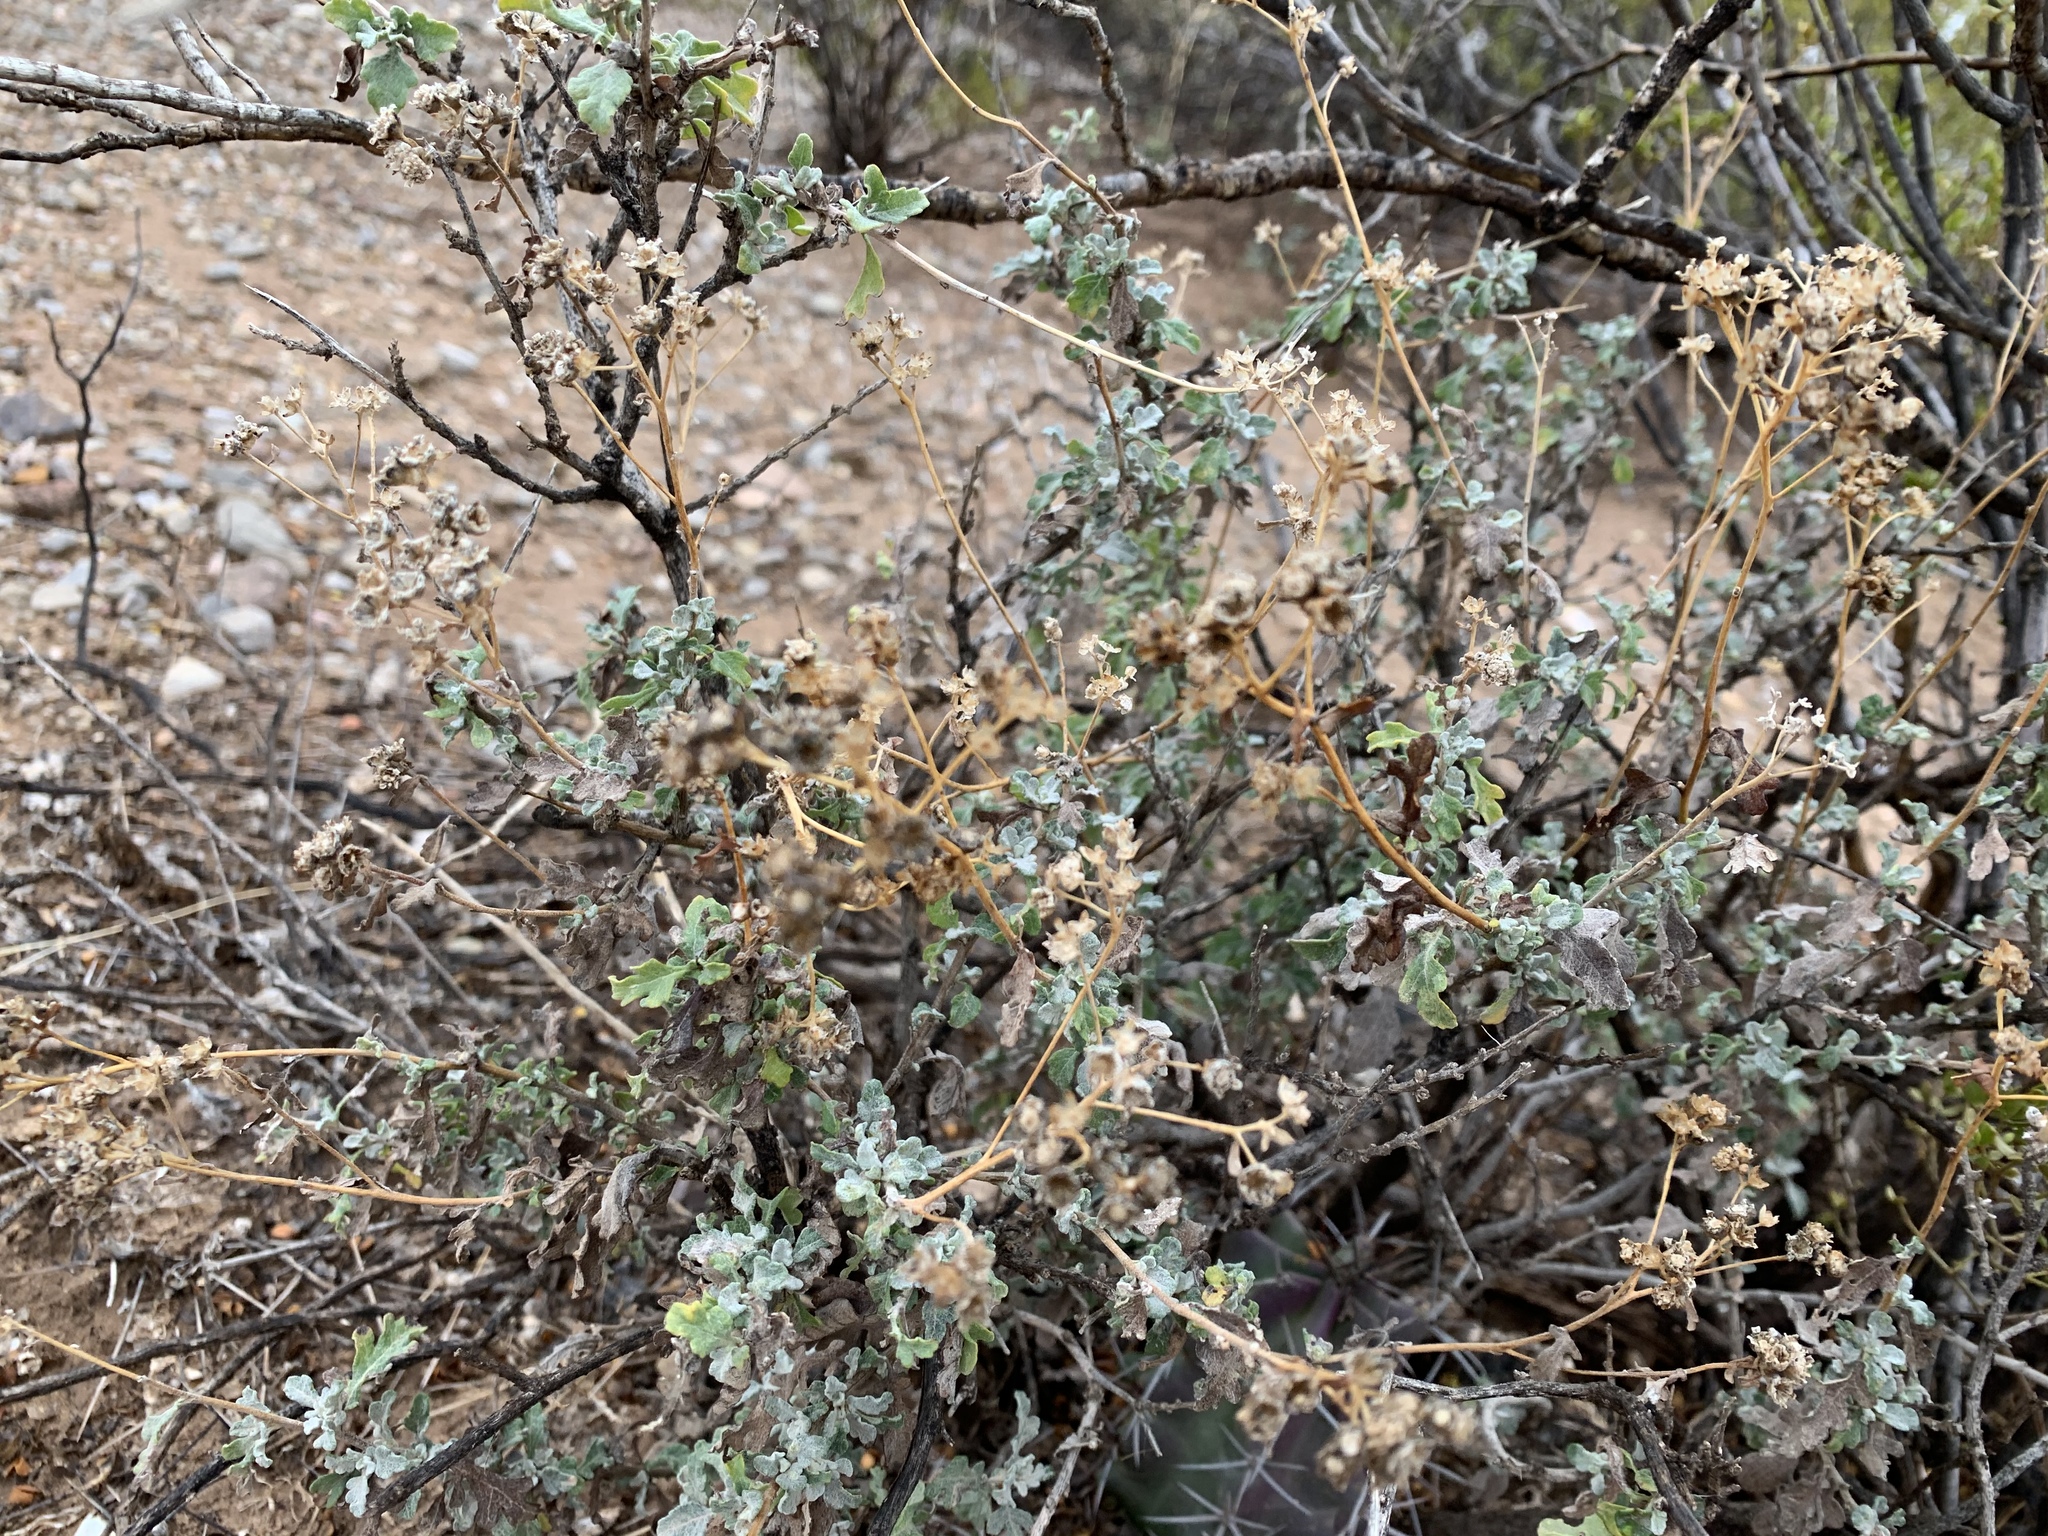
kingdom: Plantae
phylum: Tracheophyta
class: Magnoliopsida
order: Asterales
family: Asteraceae
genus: Parthenium
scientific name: Parthenium incanum
